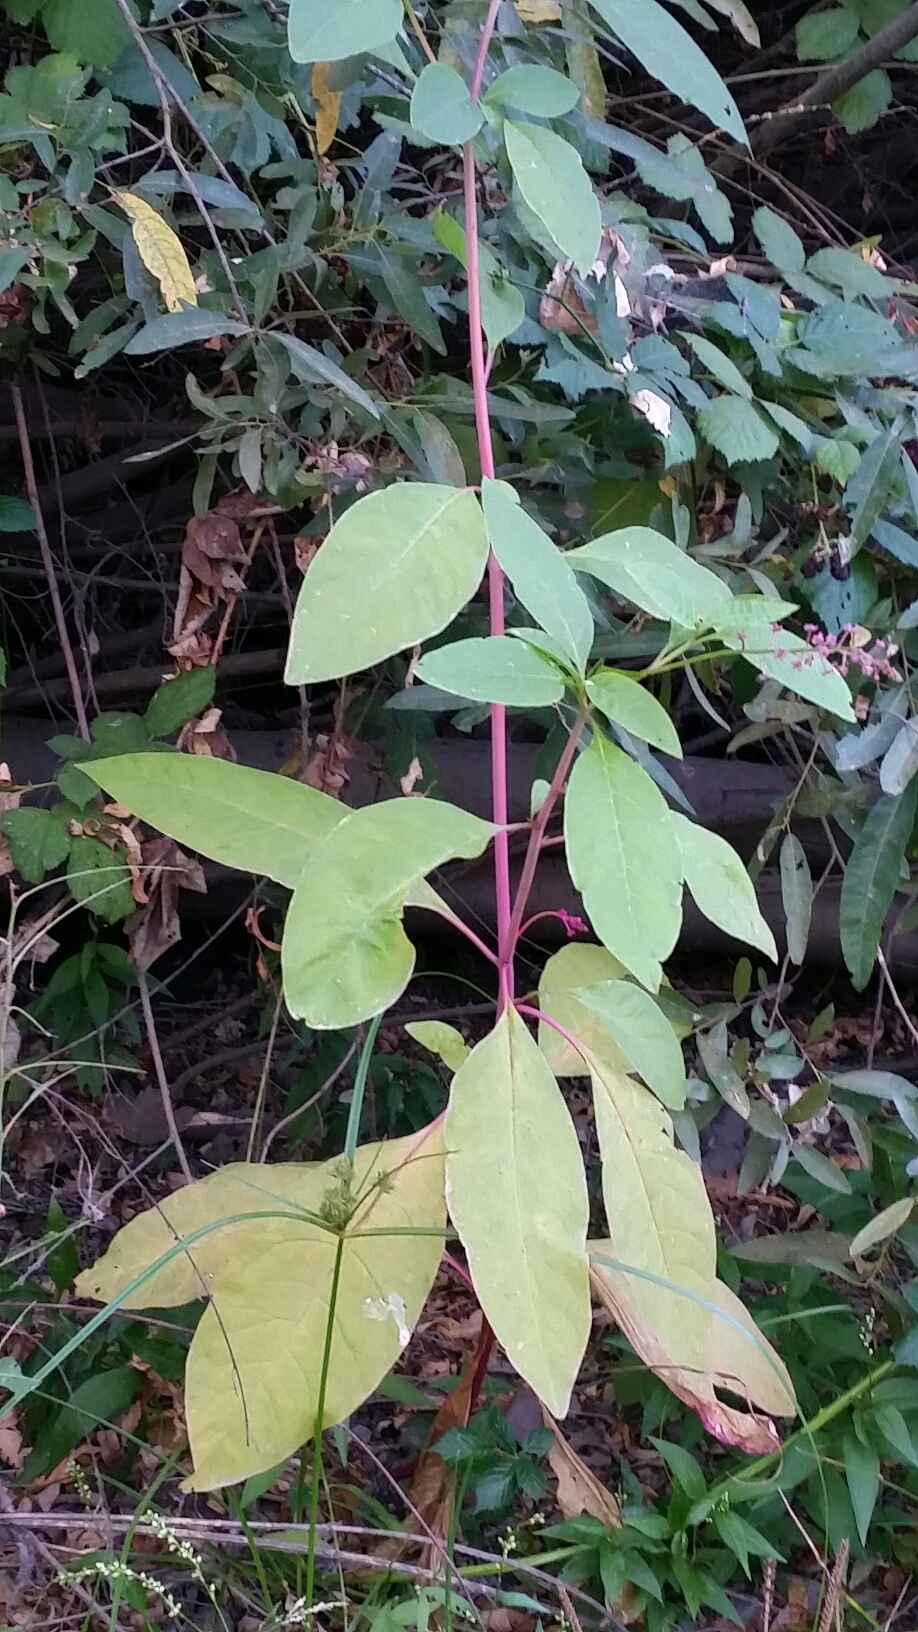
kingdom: Plantae
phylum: Tracheophyta
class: Magnoliopsida
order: Caryophyllales
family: Phytolaccaceae
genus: Phytolacca
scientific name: Phytolacca americana
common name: American pokeweed
